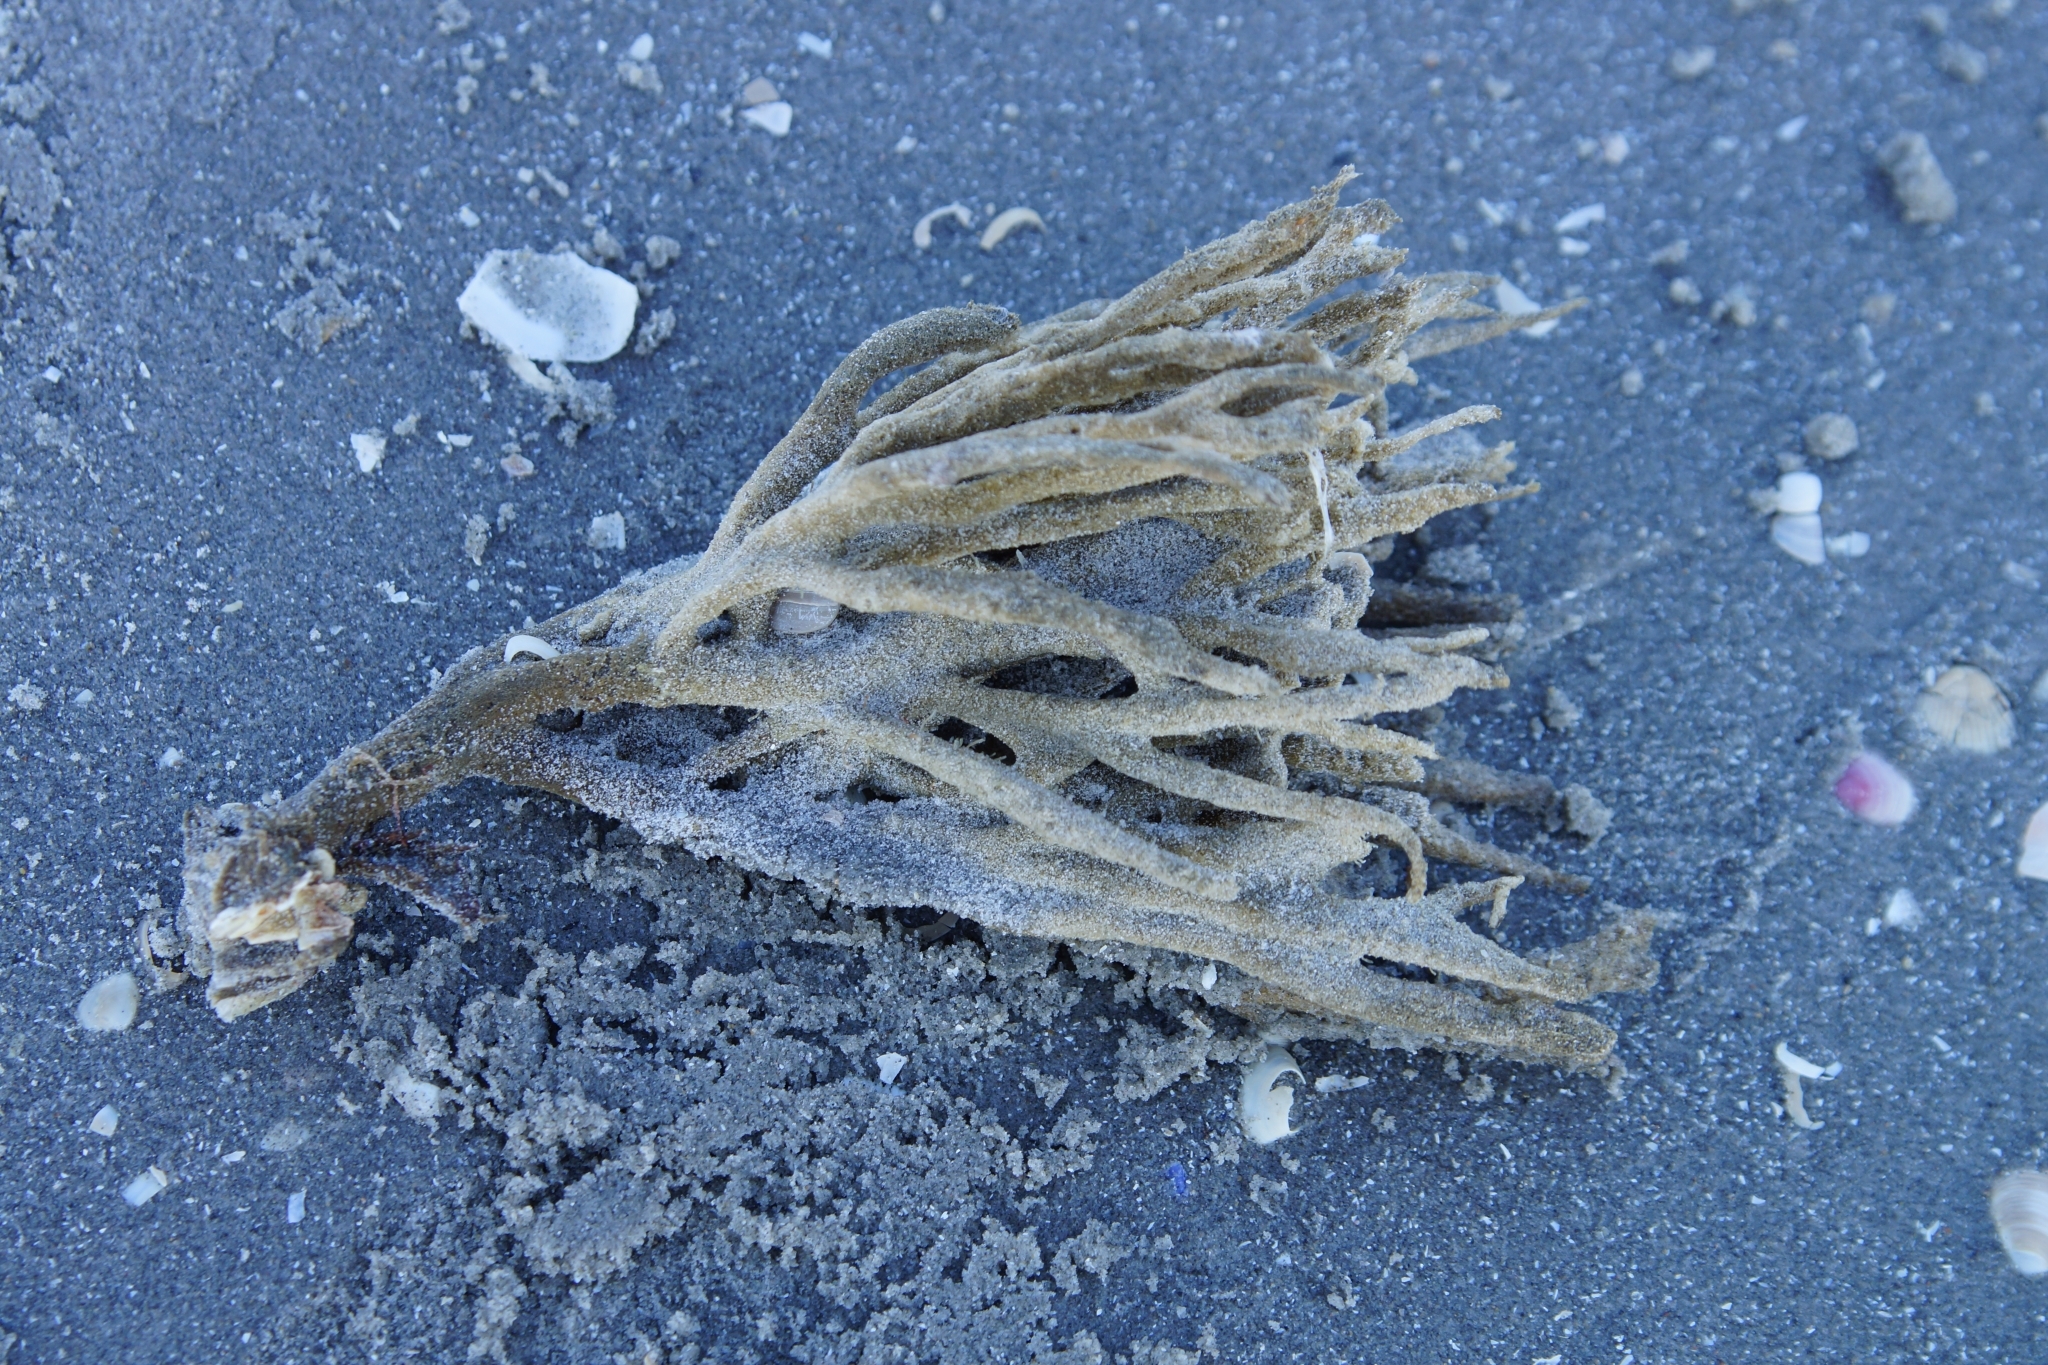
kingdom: Animalia
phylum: Porifera
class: Demospongiae
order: Haplosclerida
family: Chalinidae
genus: Haliclona
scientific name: Haliclona oculata
